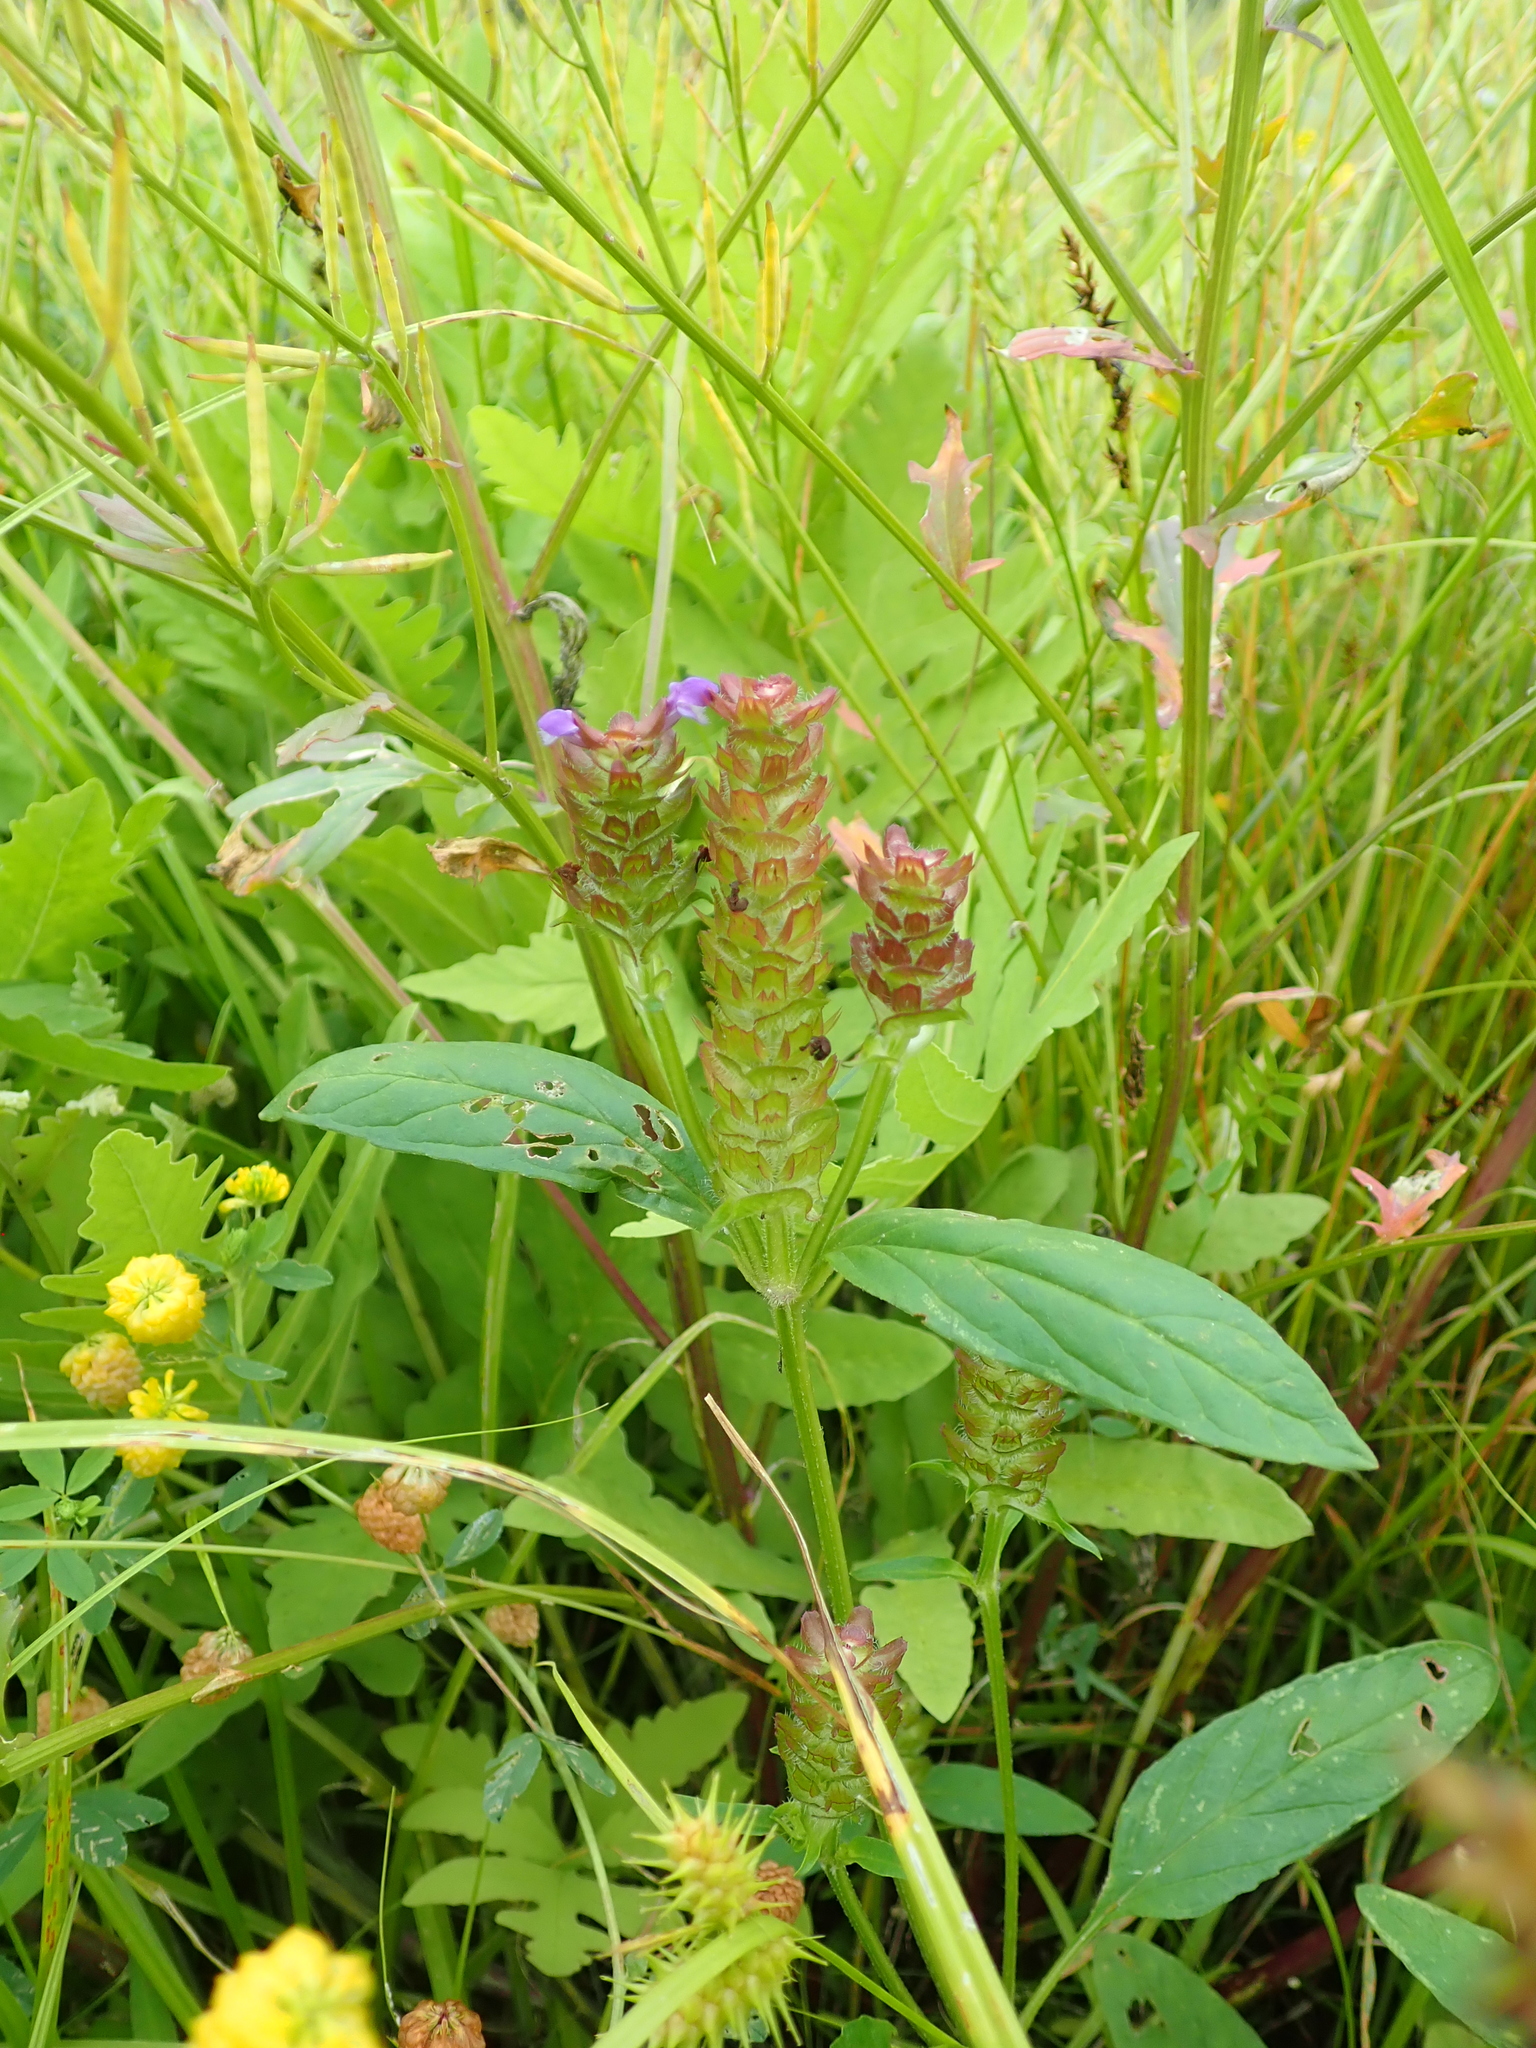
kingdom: Plantae
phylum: Tracheophyta
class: Magnoliopsida
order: Lamiales
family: Lamiaceae
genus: Prunella
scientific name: Prunella vulgaris
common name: Heal-all
